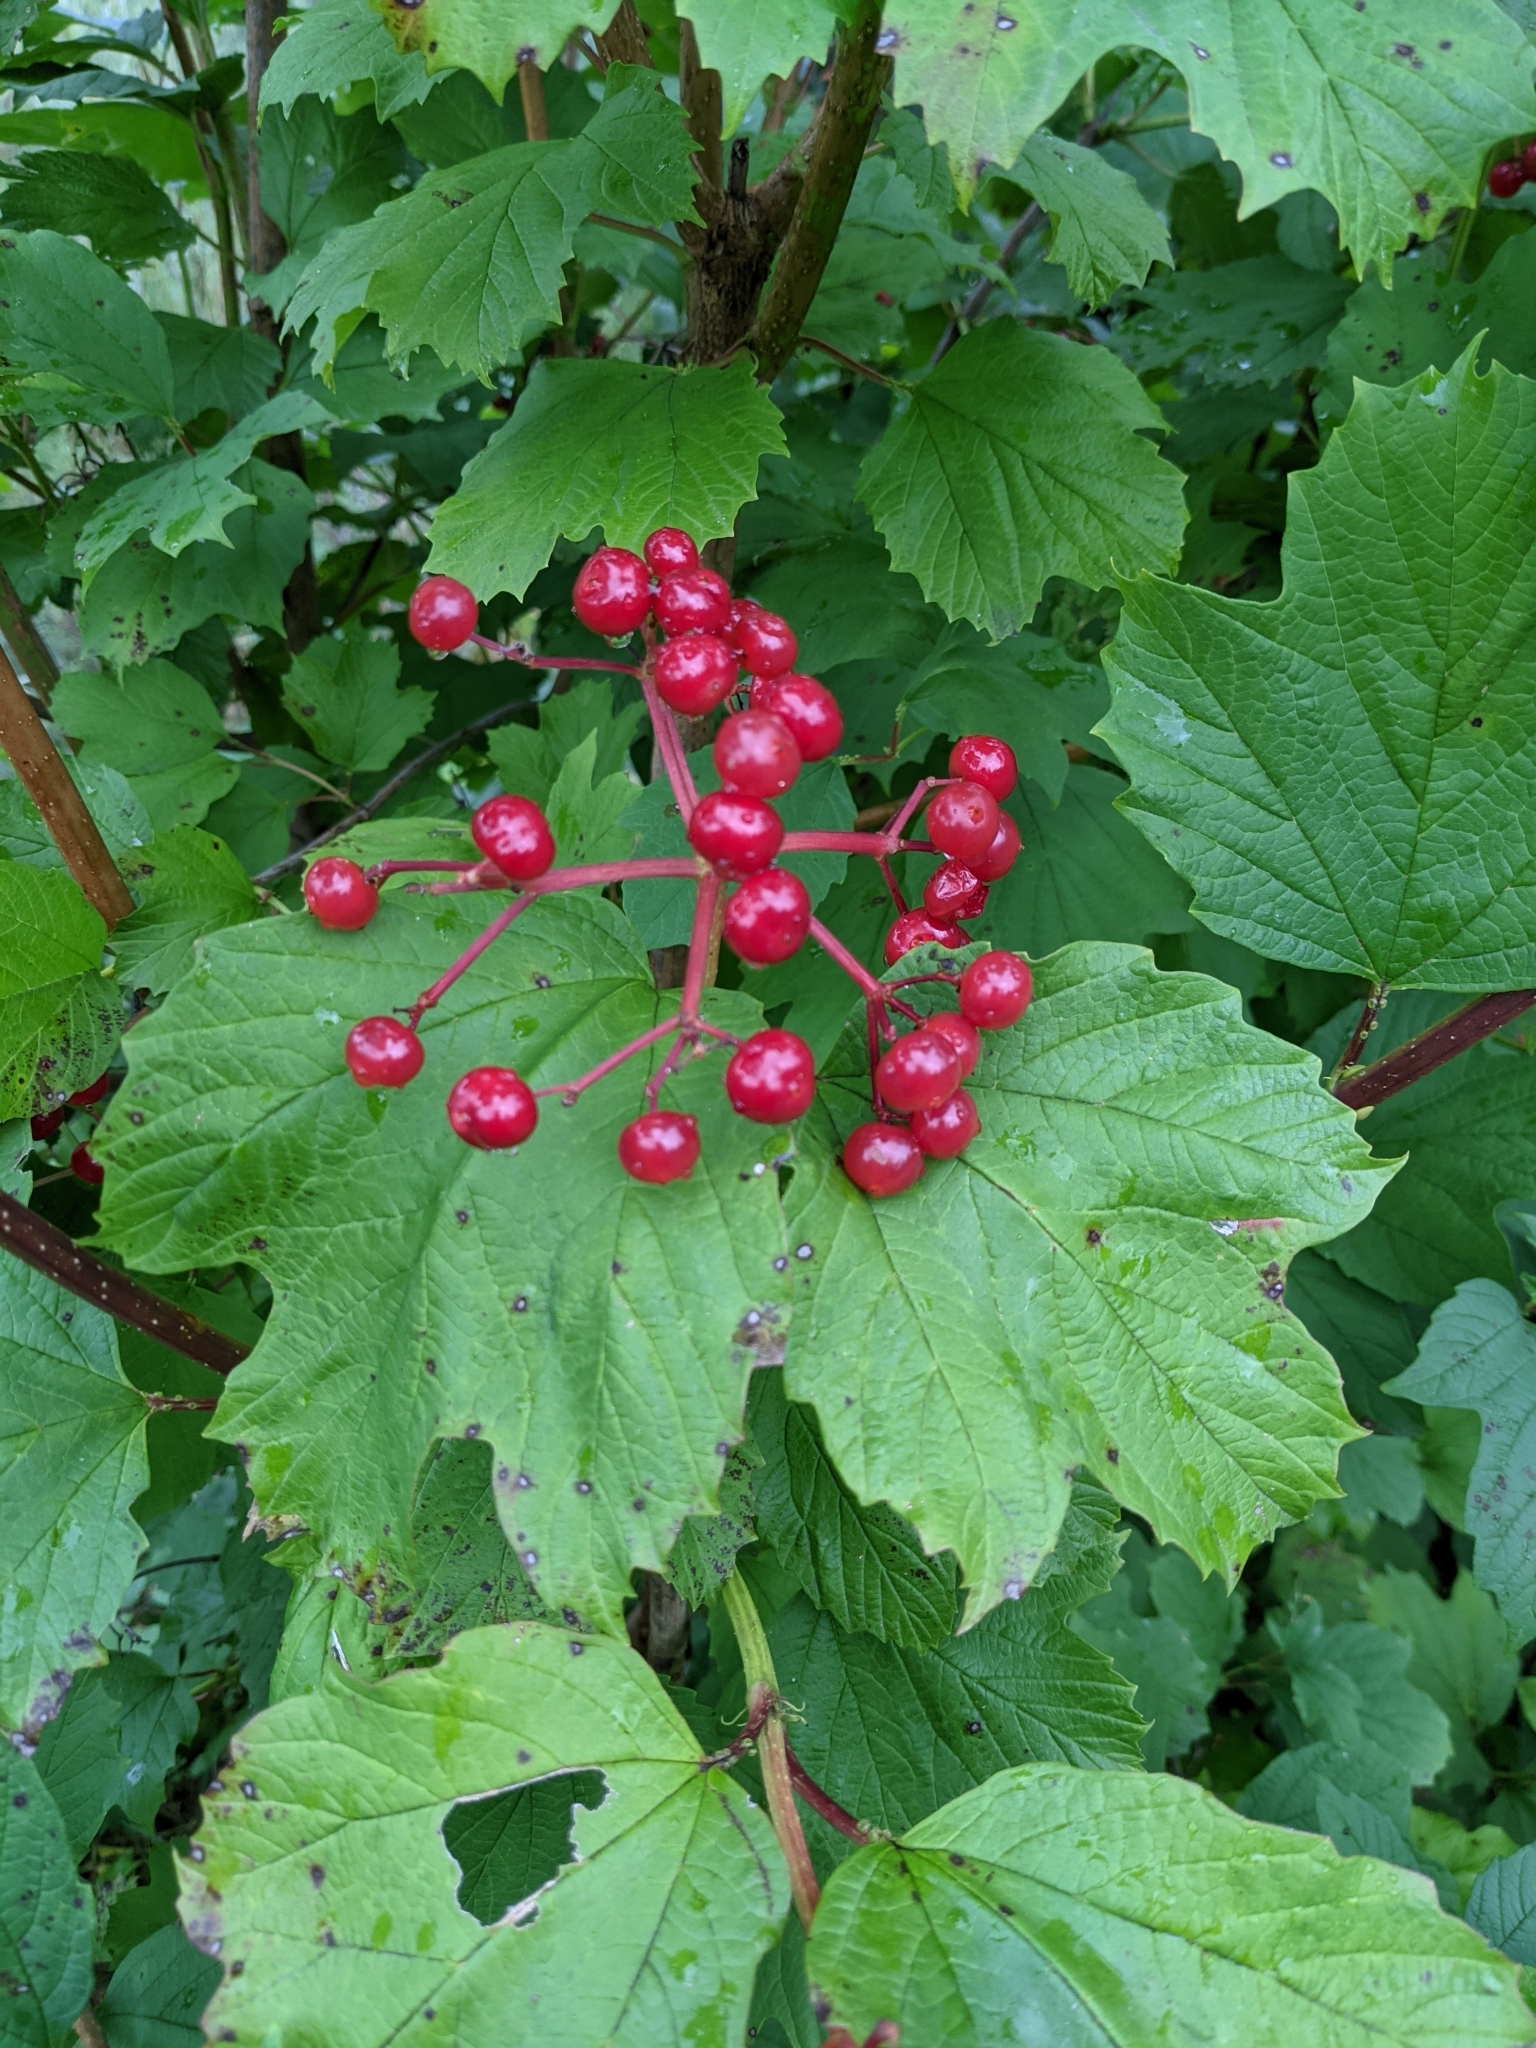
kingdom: Plantae
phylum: Tracheophyta
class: Magnoliopsida
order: Dipsacales
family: Viburnaceae
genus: Viburnum
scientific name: Viburnum opulus
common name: Guelder-rose
